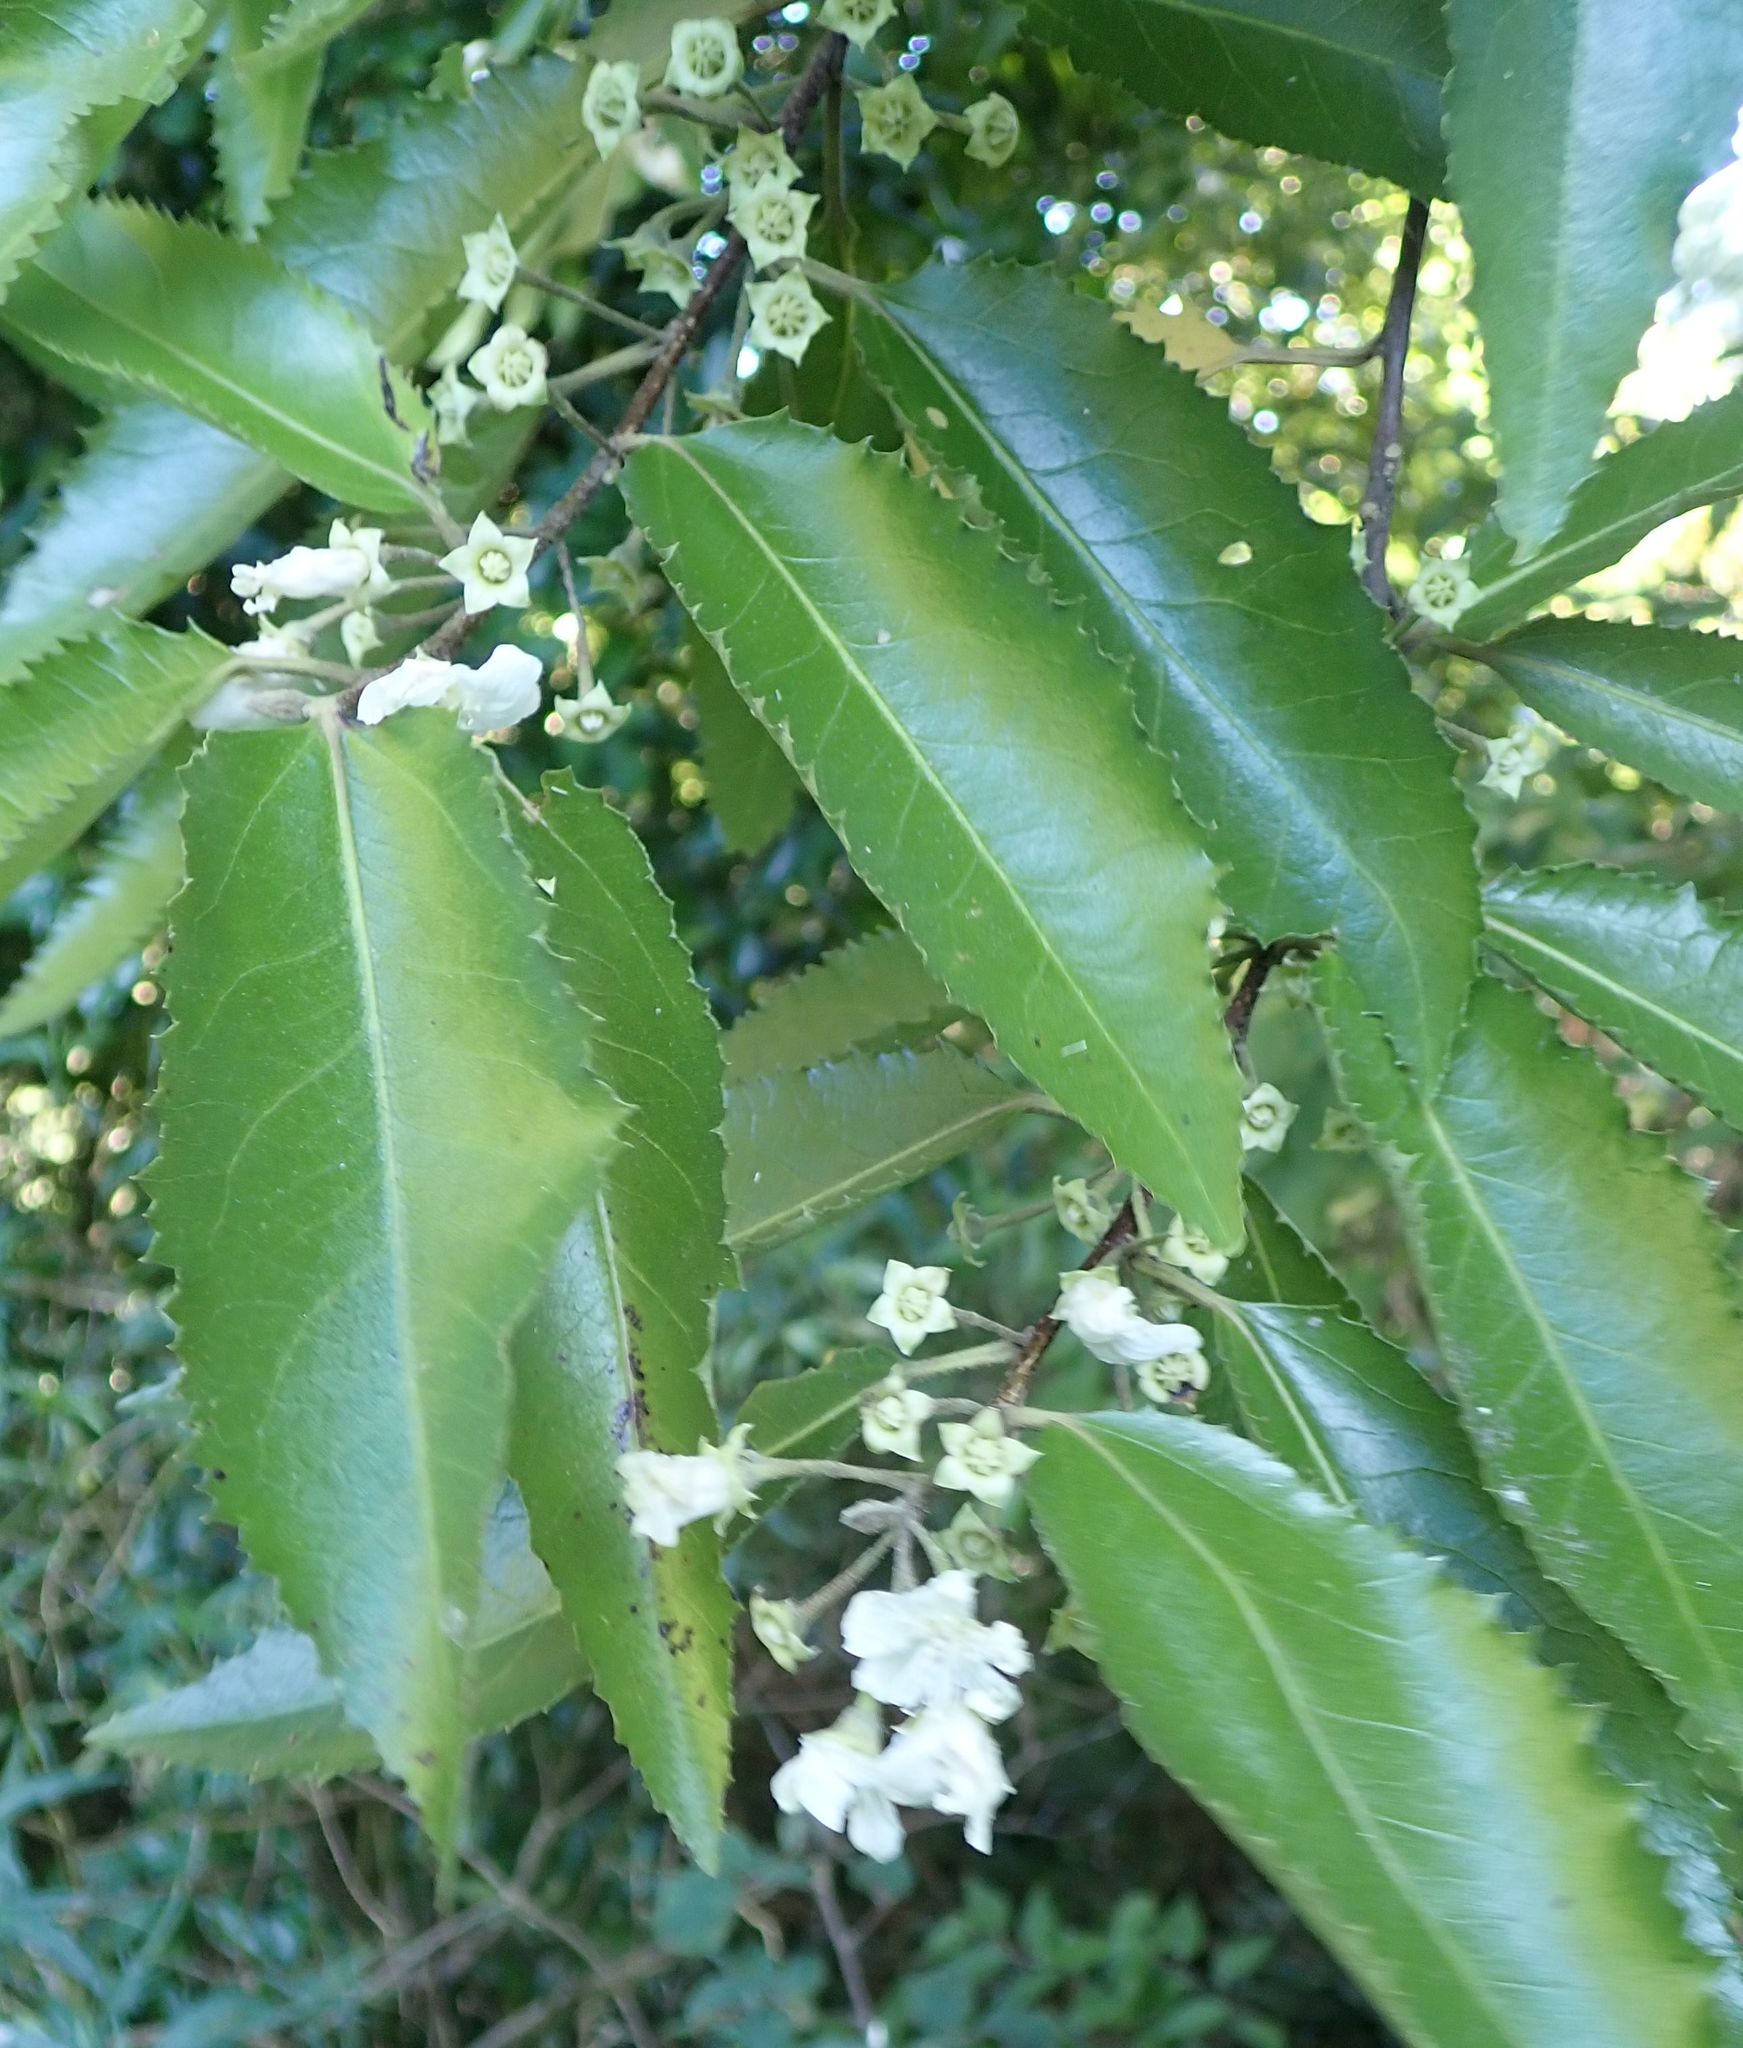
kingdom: Plantae
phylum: Tracheophyta
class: Magnoliopsida
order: Malvales
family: Malvaceae
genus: Hoheria
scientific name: Hoheria sexstylosa
